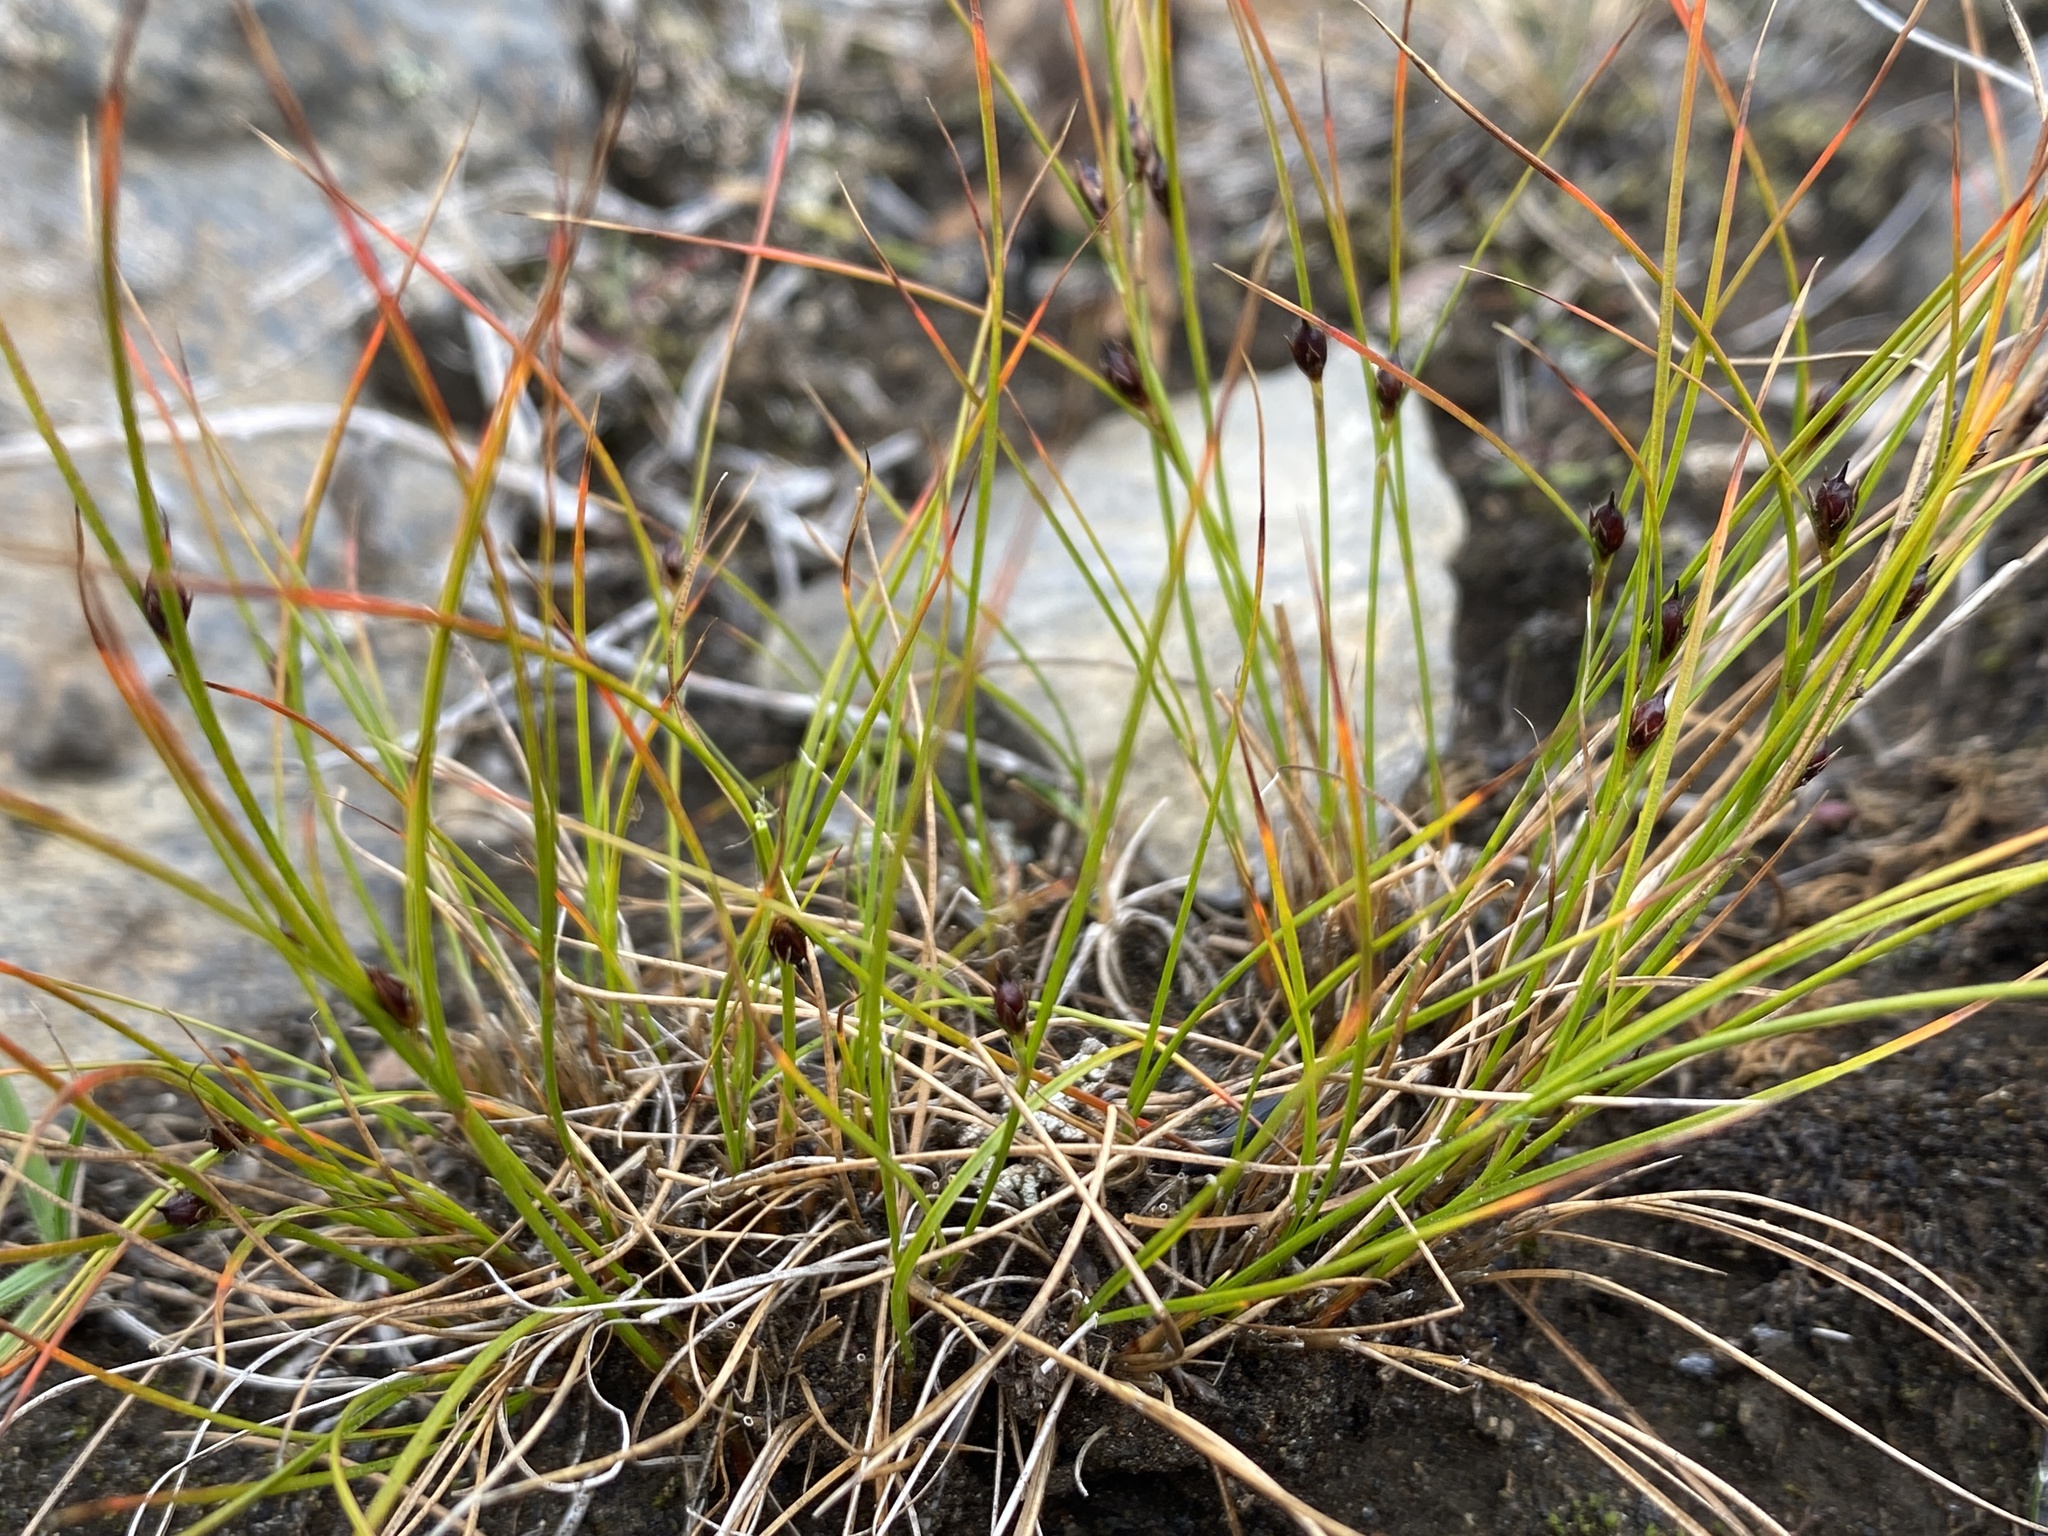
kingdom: Plantae
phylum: Tracheophyta
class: Liliopsida
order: Poales
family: Juncaceae
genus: Oreojuncus
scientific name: Oreojuncus trifidus
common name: Highland rush
